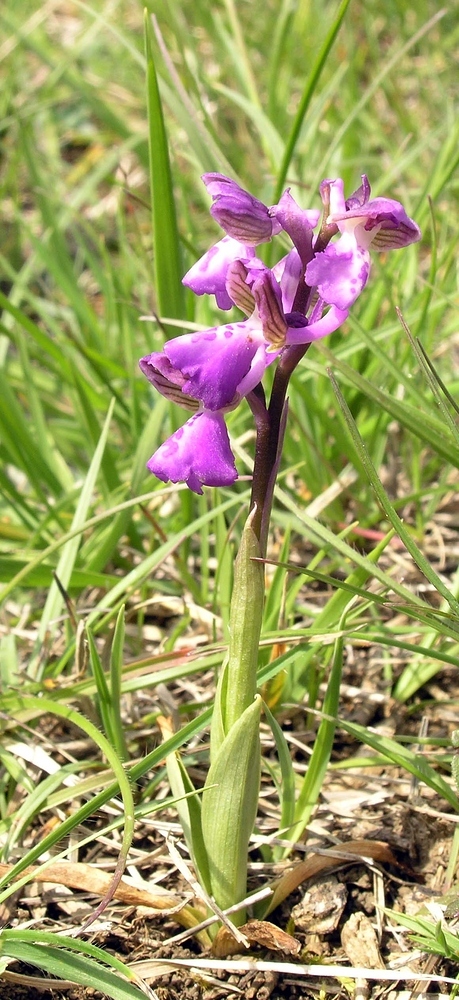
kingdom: Plantae
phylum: Tracheophyta
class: Liliopsida
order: Asparagales
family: Orchidaceae
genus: Anacamptis
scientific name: Anacamptis morio
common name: Green-winged orchid
